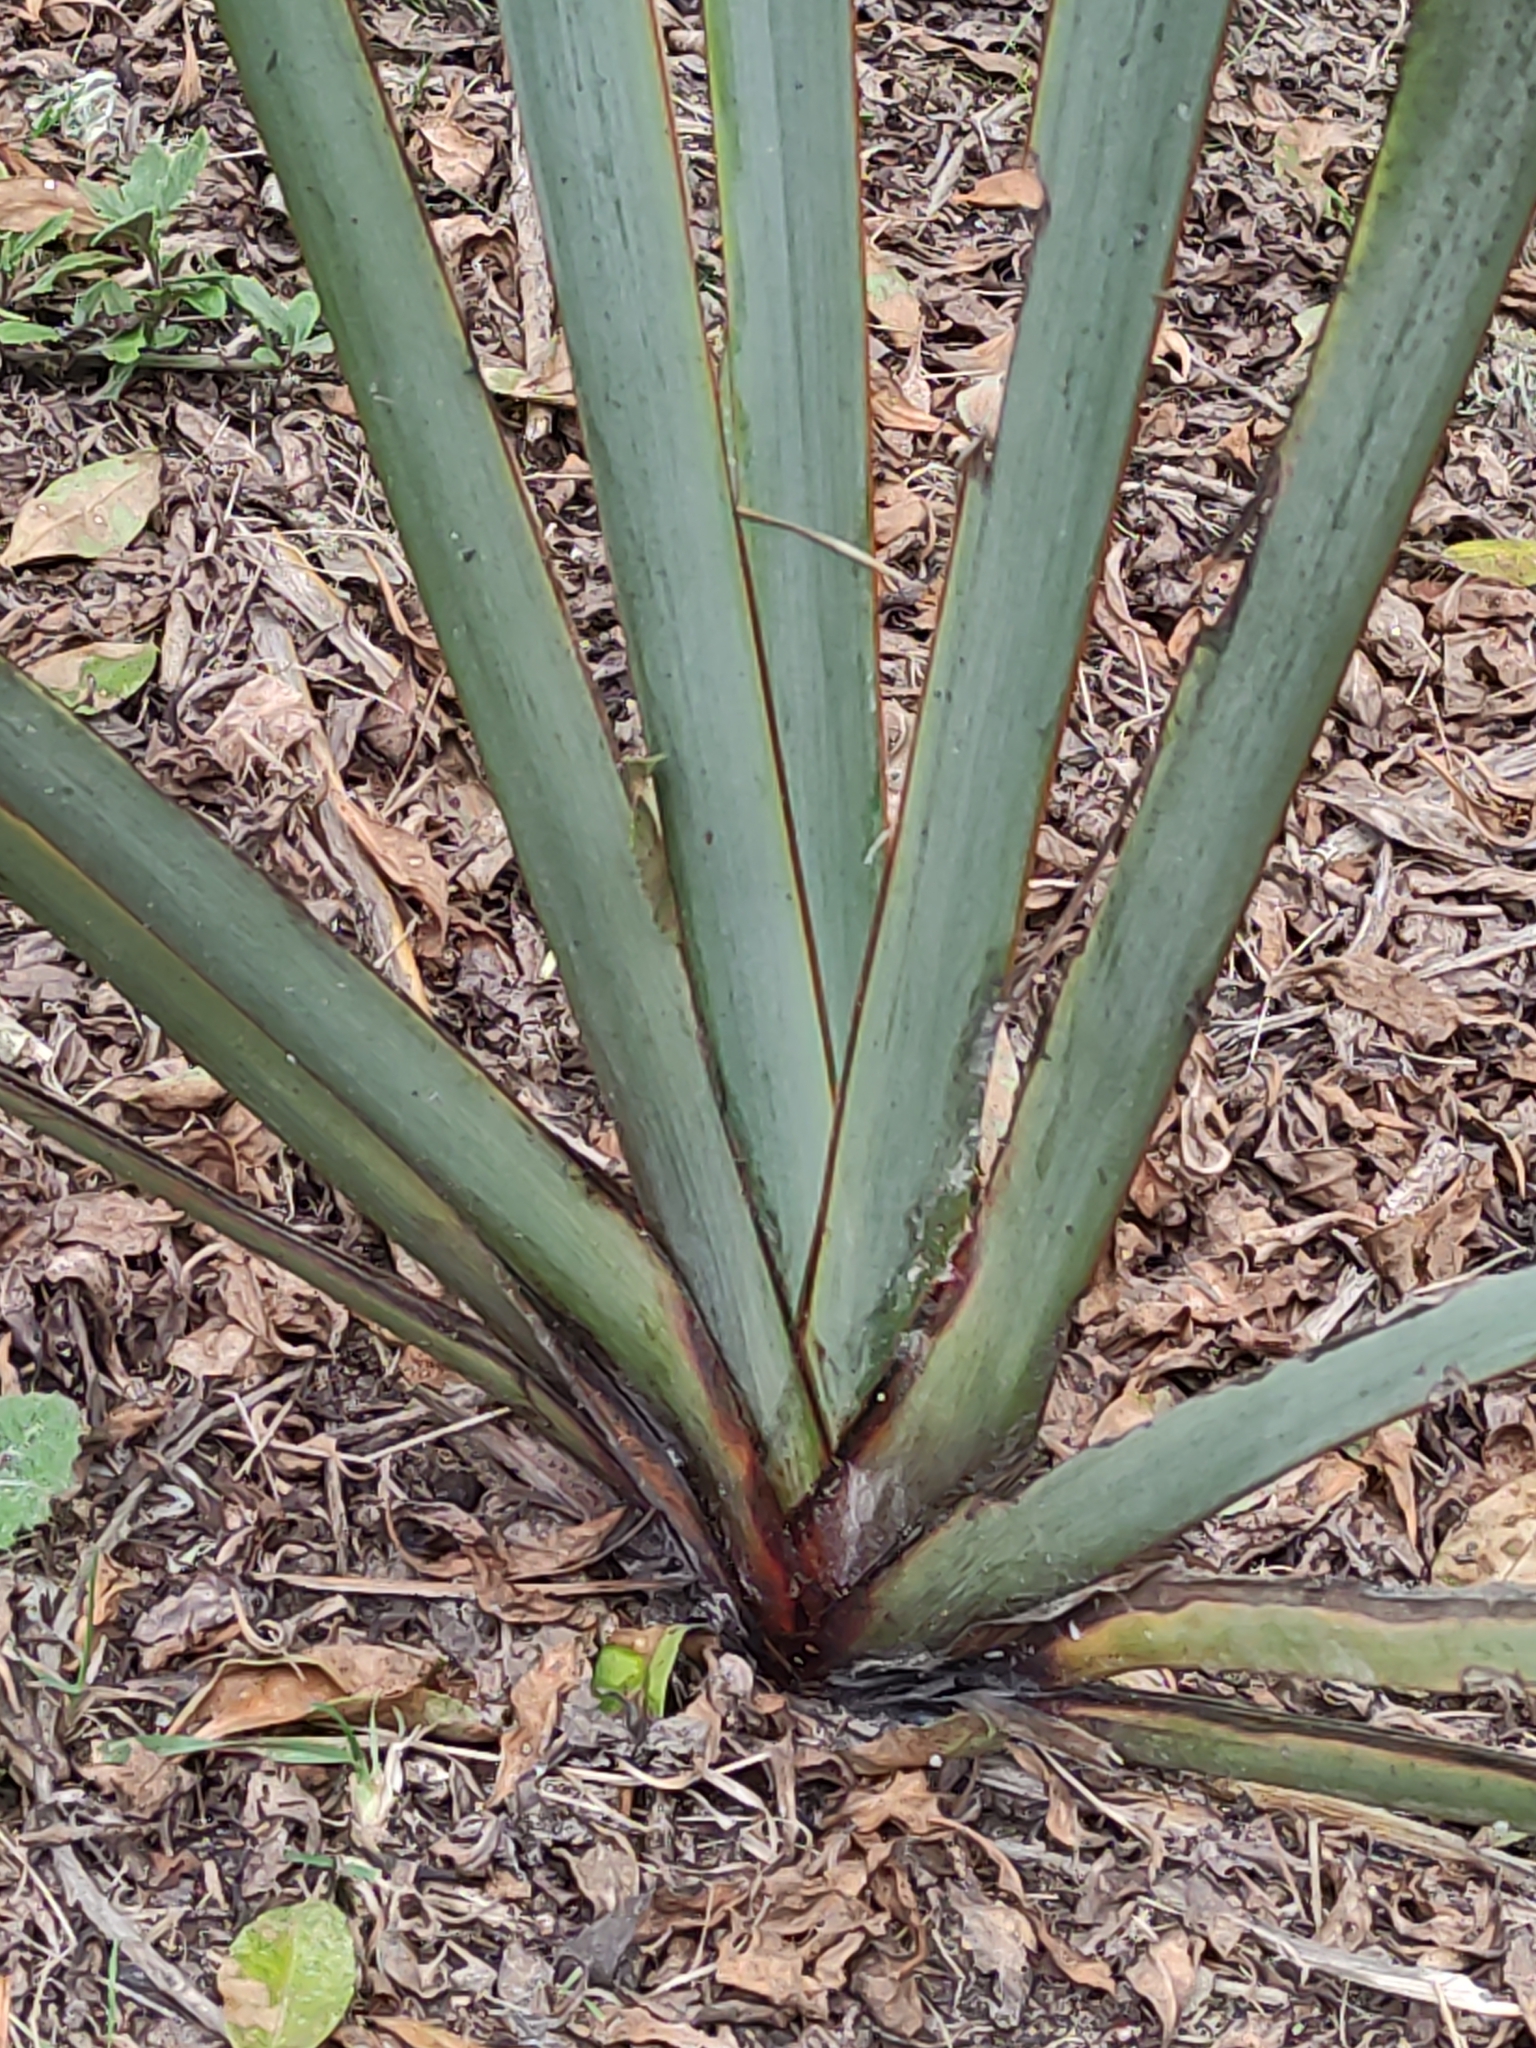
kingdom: Plantae
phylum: Tracheophyta
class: Liliopsida
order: Asparagales
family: Asphodelaceae
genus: Phormium
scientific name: Phormium tenax
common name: New zealand flax
